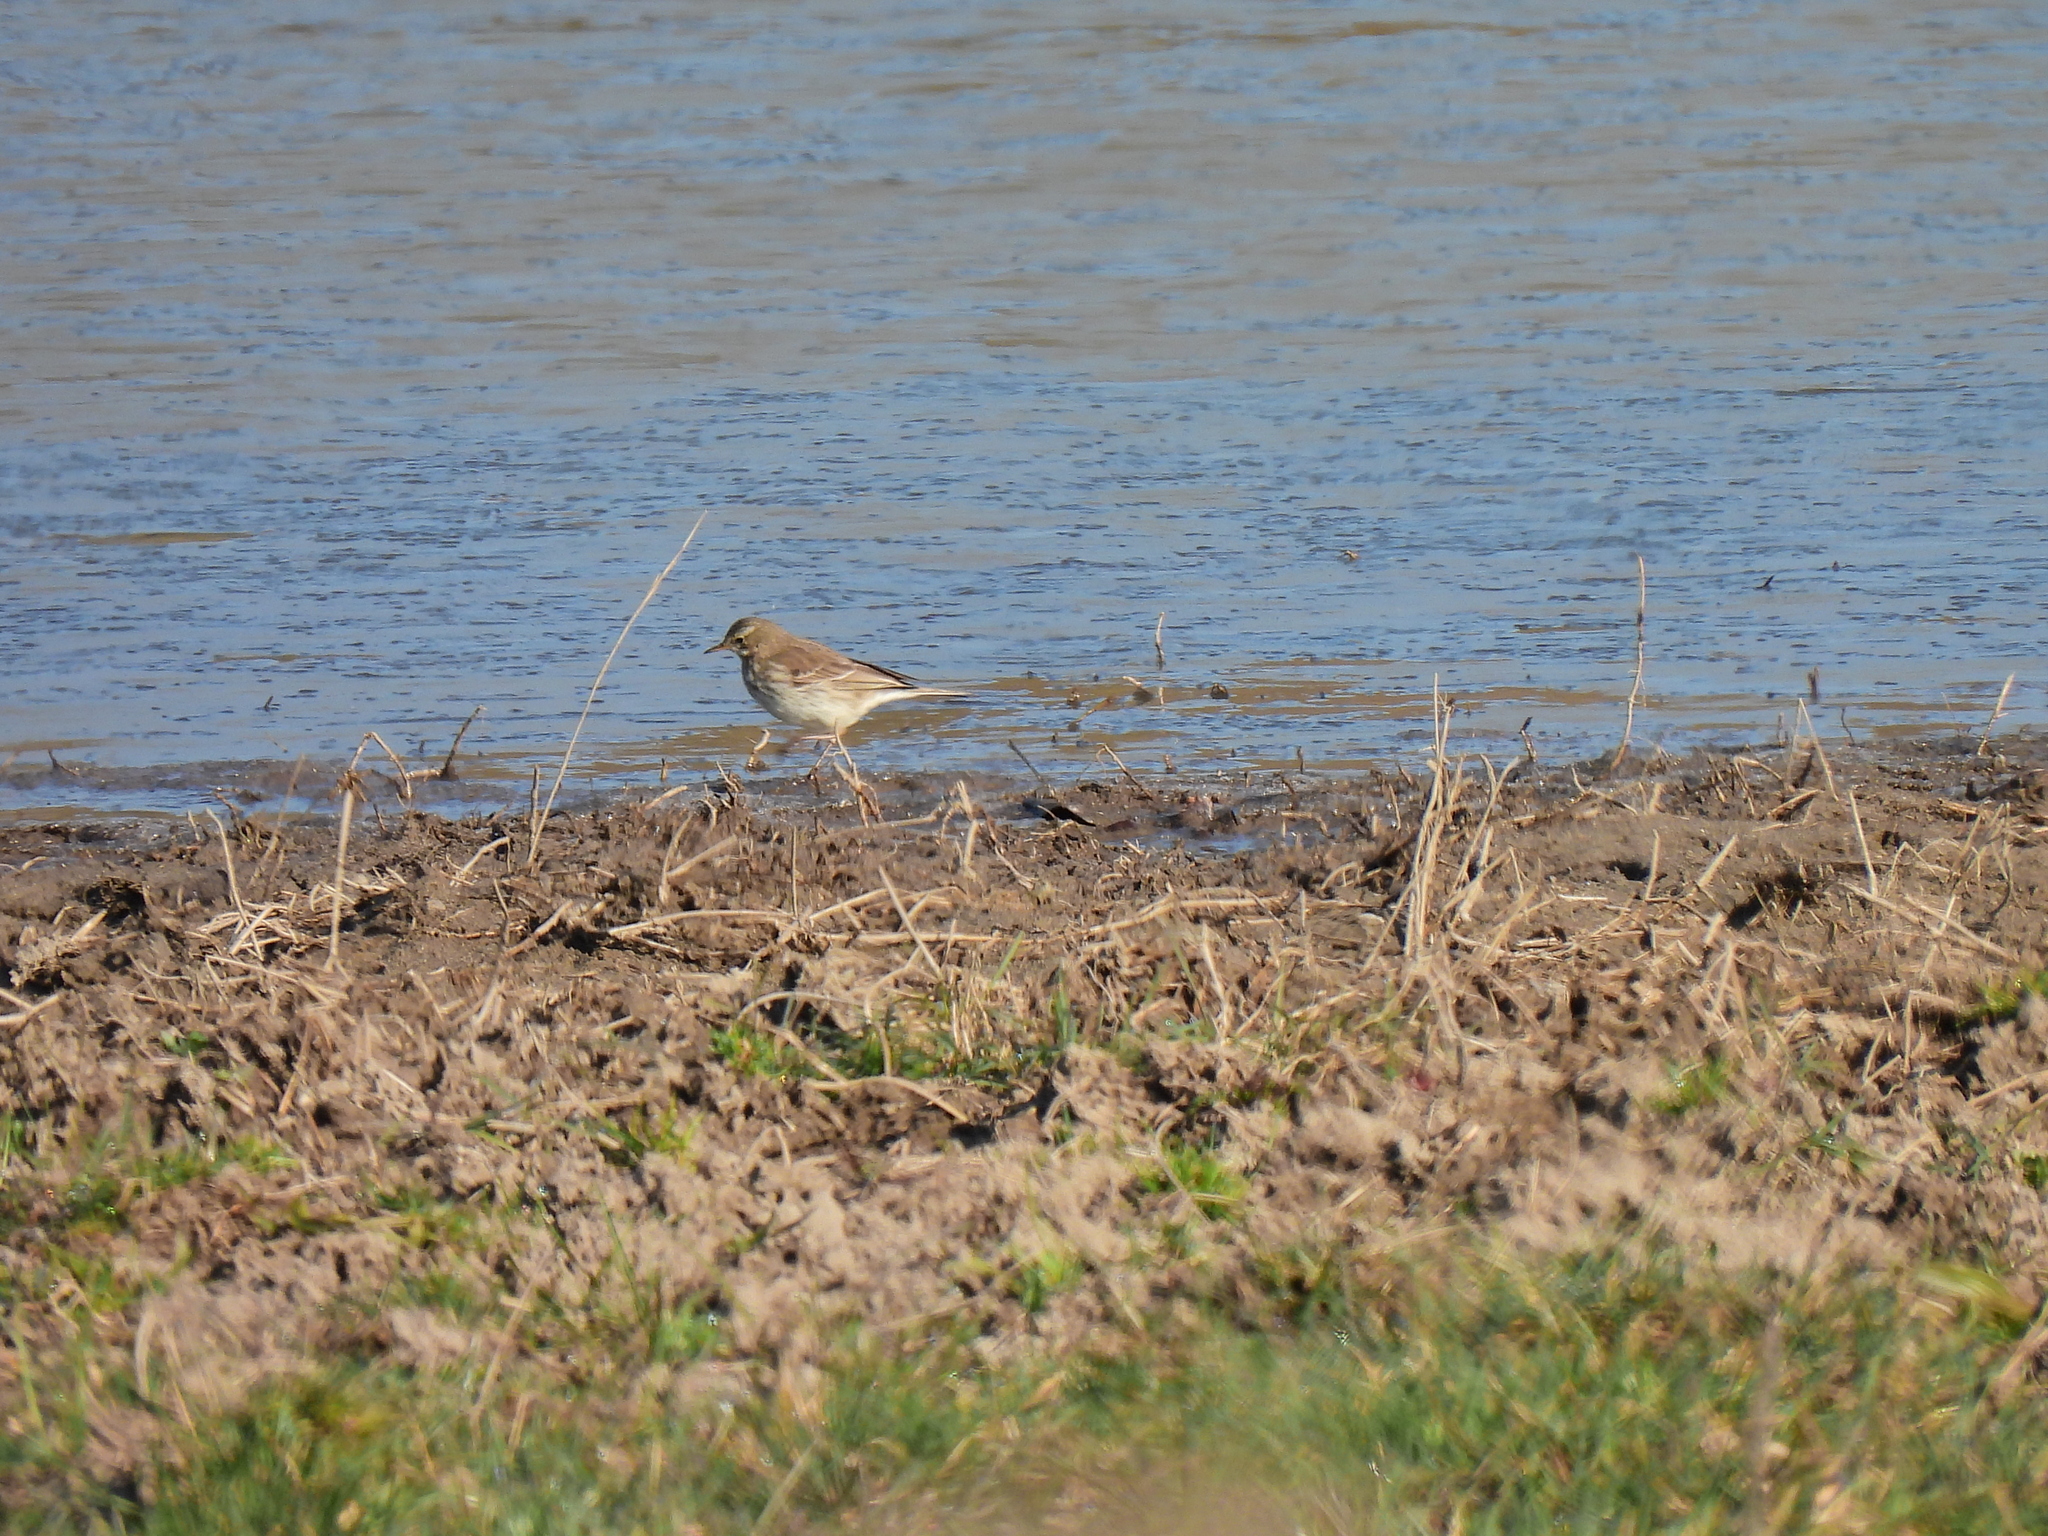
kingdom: Animalia
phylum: Chordata
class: Aves
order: Passeriformes
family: Motacillidae
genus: Anthus
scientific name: Anthus spinoletta
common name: Water pipit
